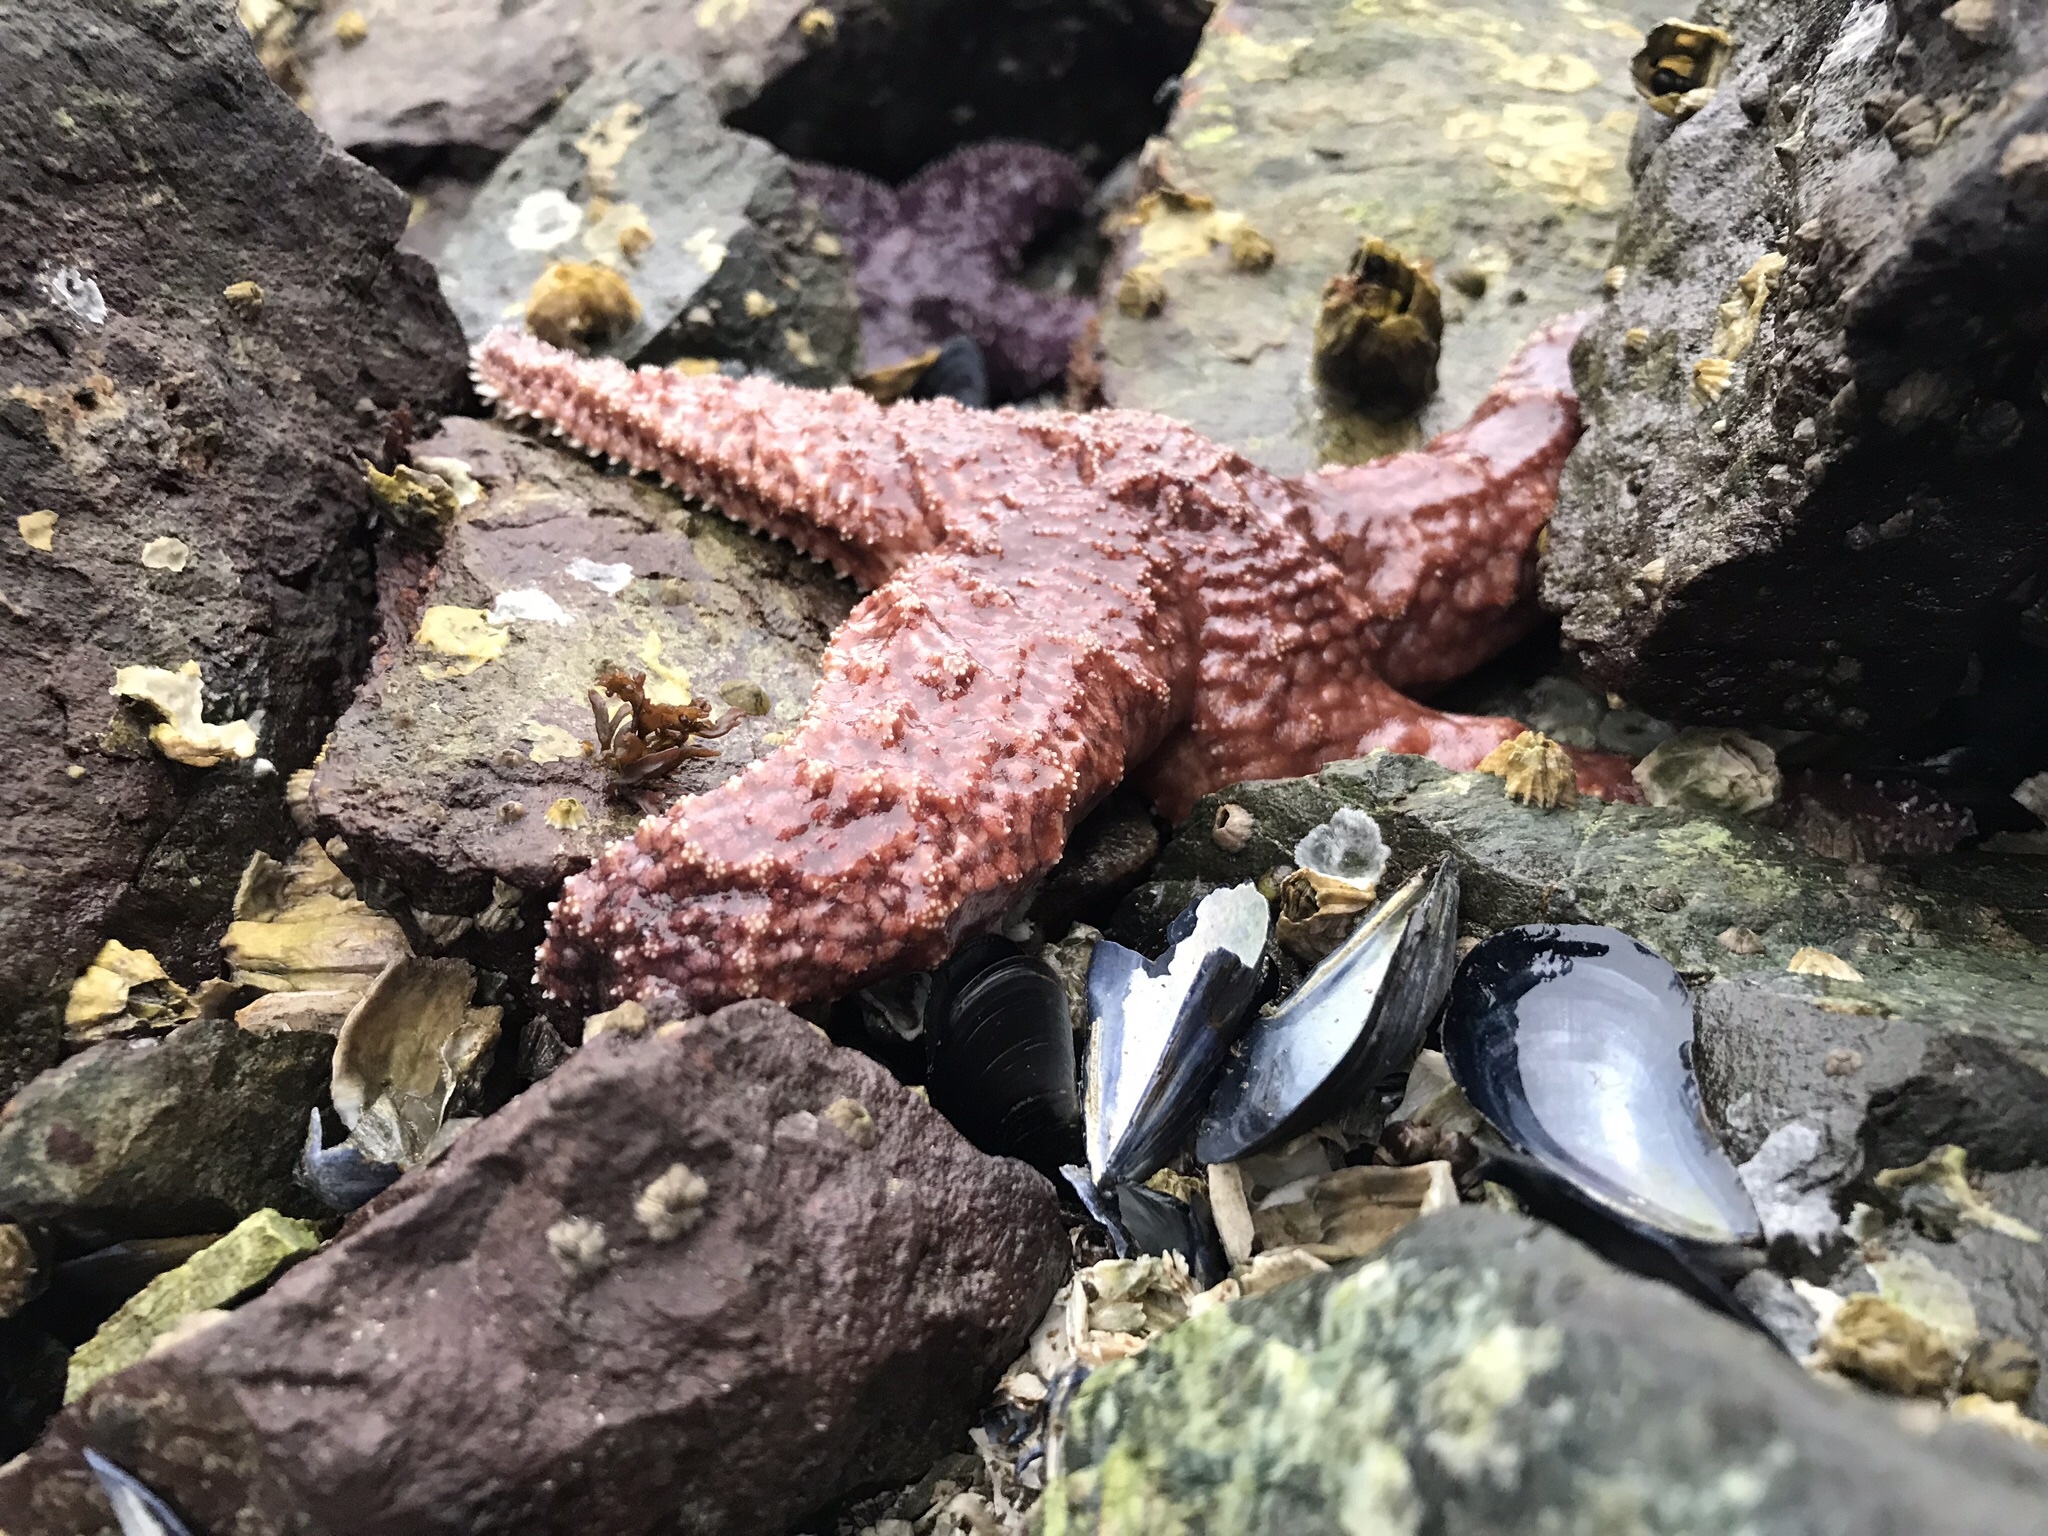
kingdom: Animalia
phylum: Echinodermata
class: Asteroidea
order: Forcipulatida
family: Asteriidae
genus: Pisaster
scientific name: Pisaster ochraceus
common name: Ochre stars
